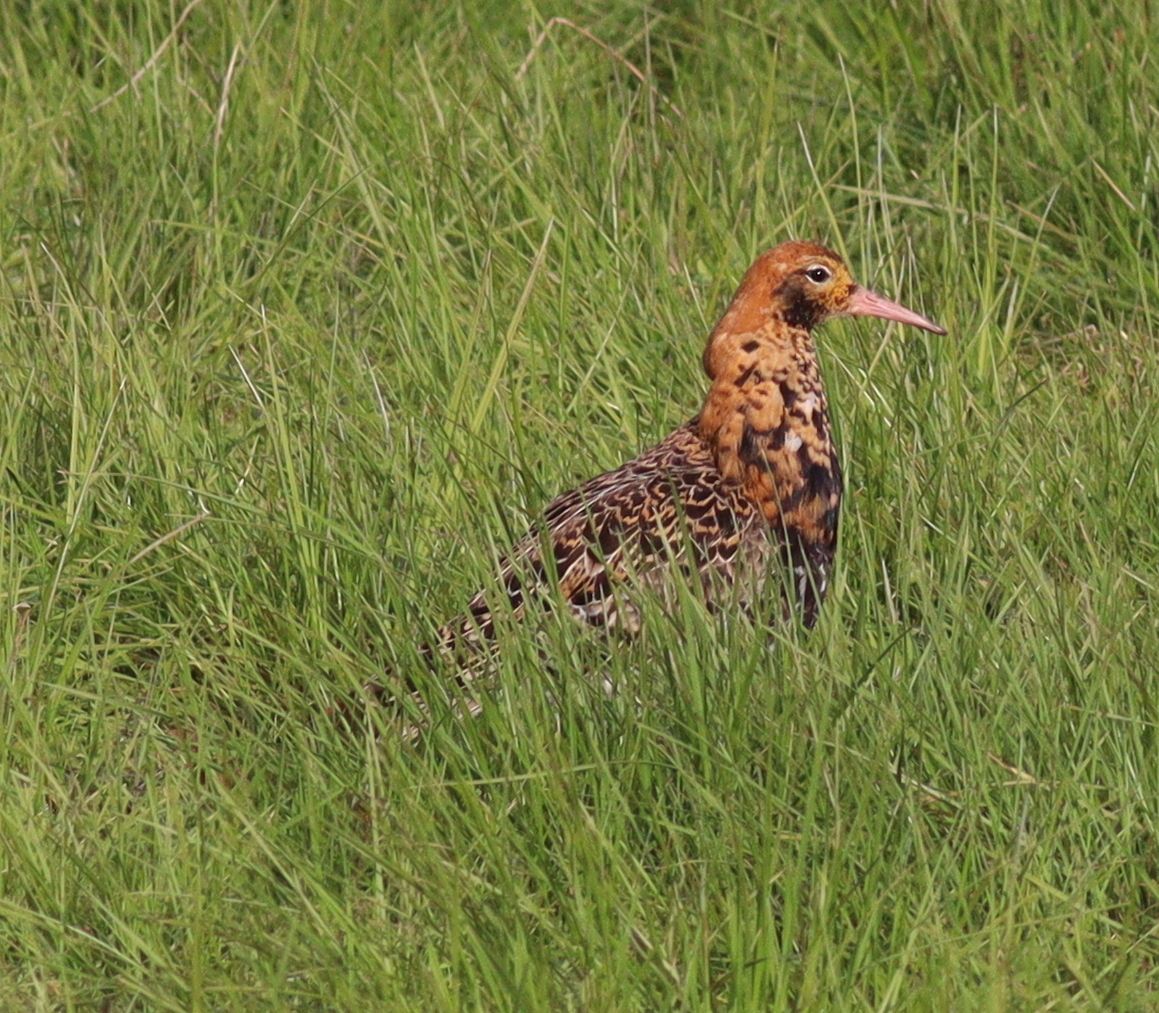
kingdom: Animalia
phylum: Chordata
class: Aves
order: Charadriiformes
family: Scolopacidae
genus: Calidris
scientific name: Calidris pugnax
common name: Ruff
